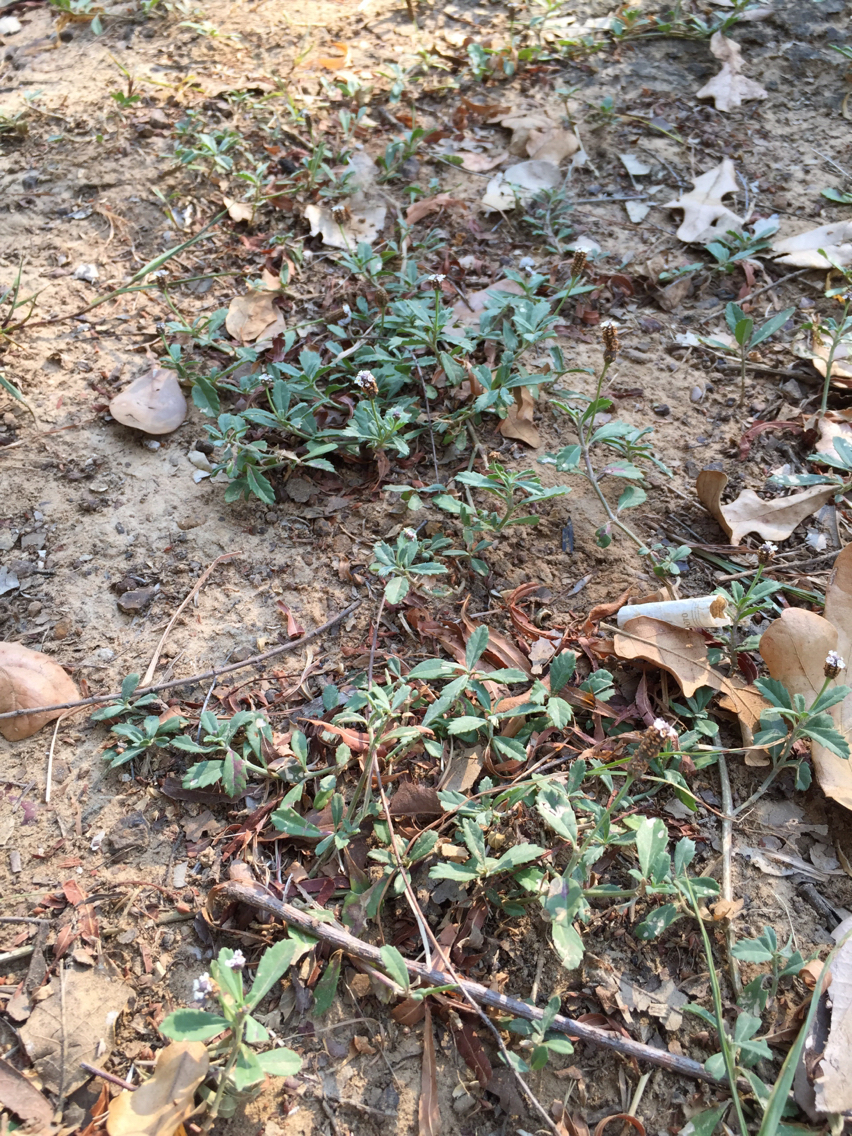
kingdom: Plantae
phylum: Tracheophyta
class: Magnoliopsida
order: Lamiales
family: Verbenaceae
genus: Phyla
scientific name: Phyla nodiflora
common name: Frogfruit
